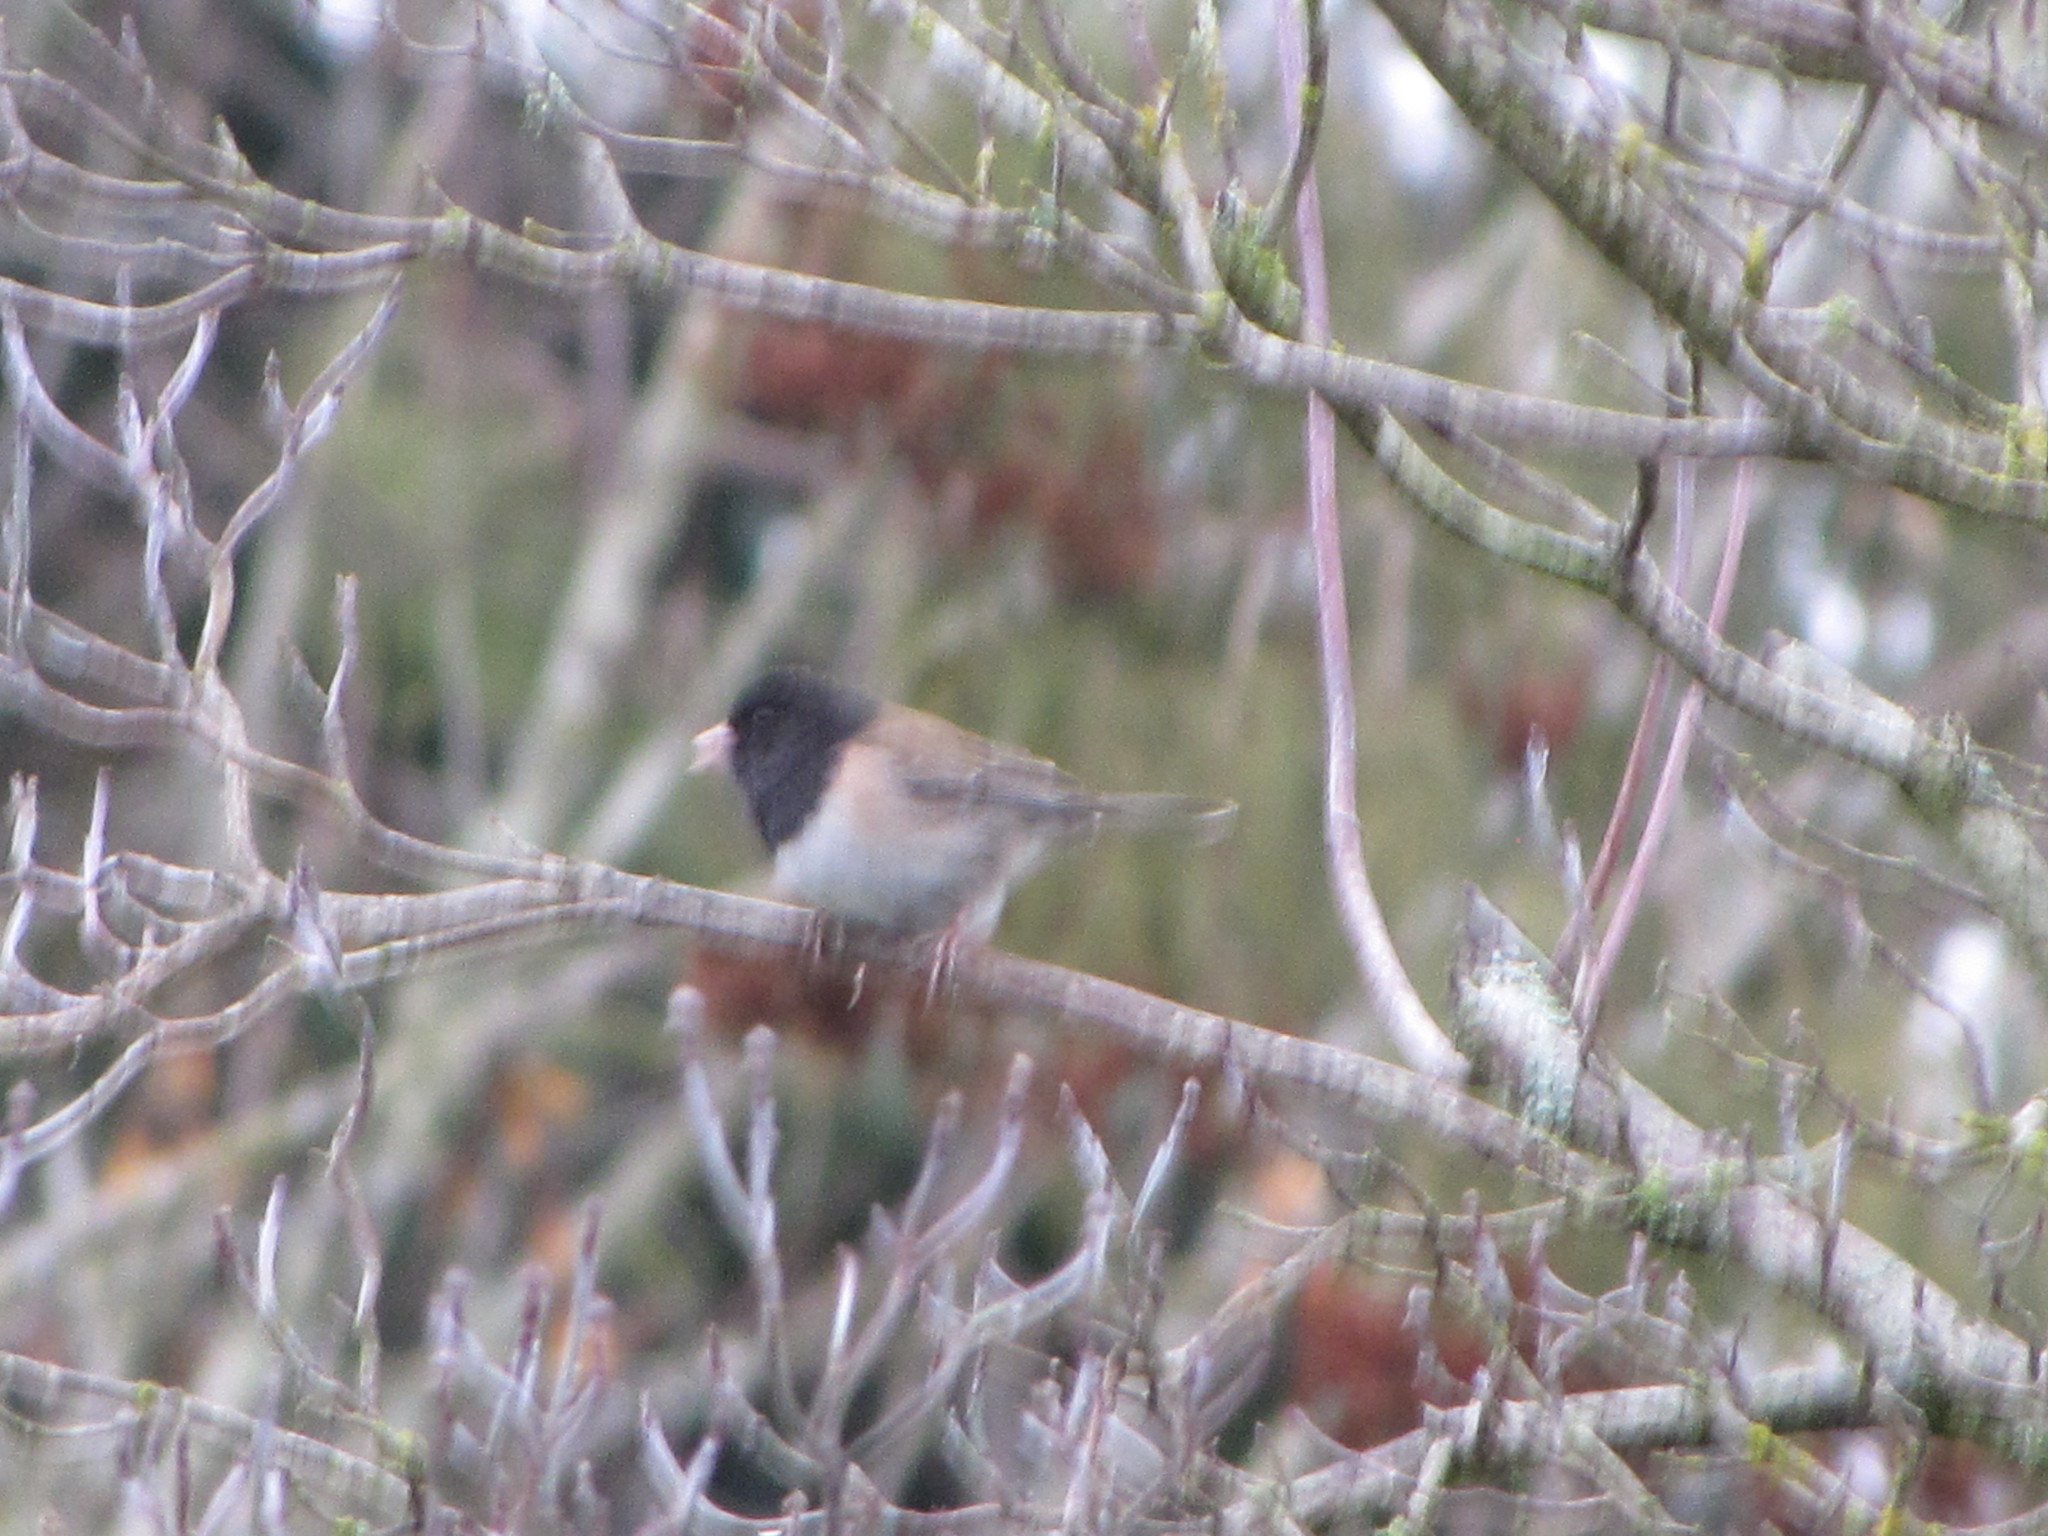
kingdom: Animalia
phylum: Chordata
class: Aves
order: Passeriformes
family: Passerellidae
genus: Junco
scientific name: Junco hyemalis
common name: Dark-eyed junco
